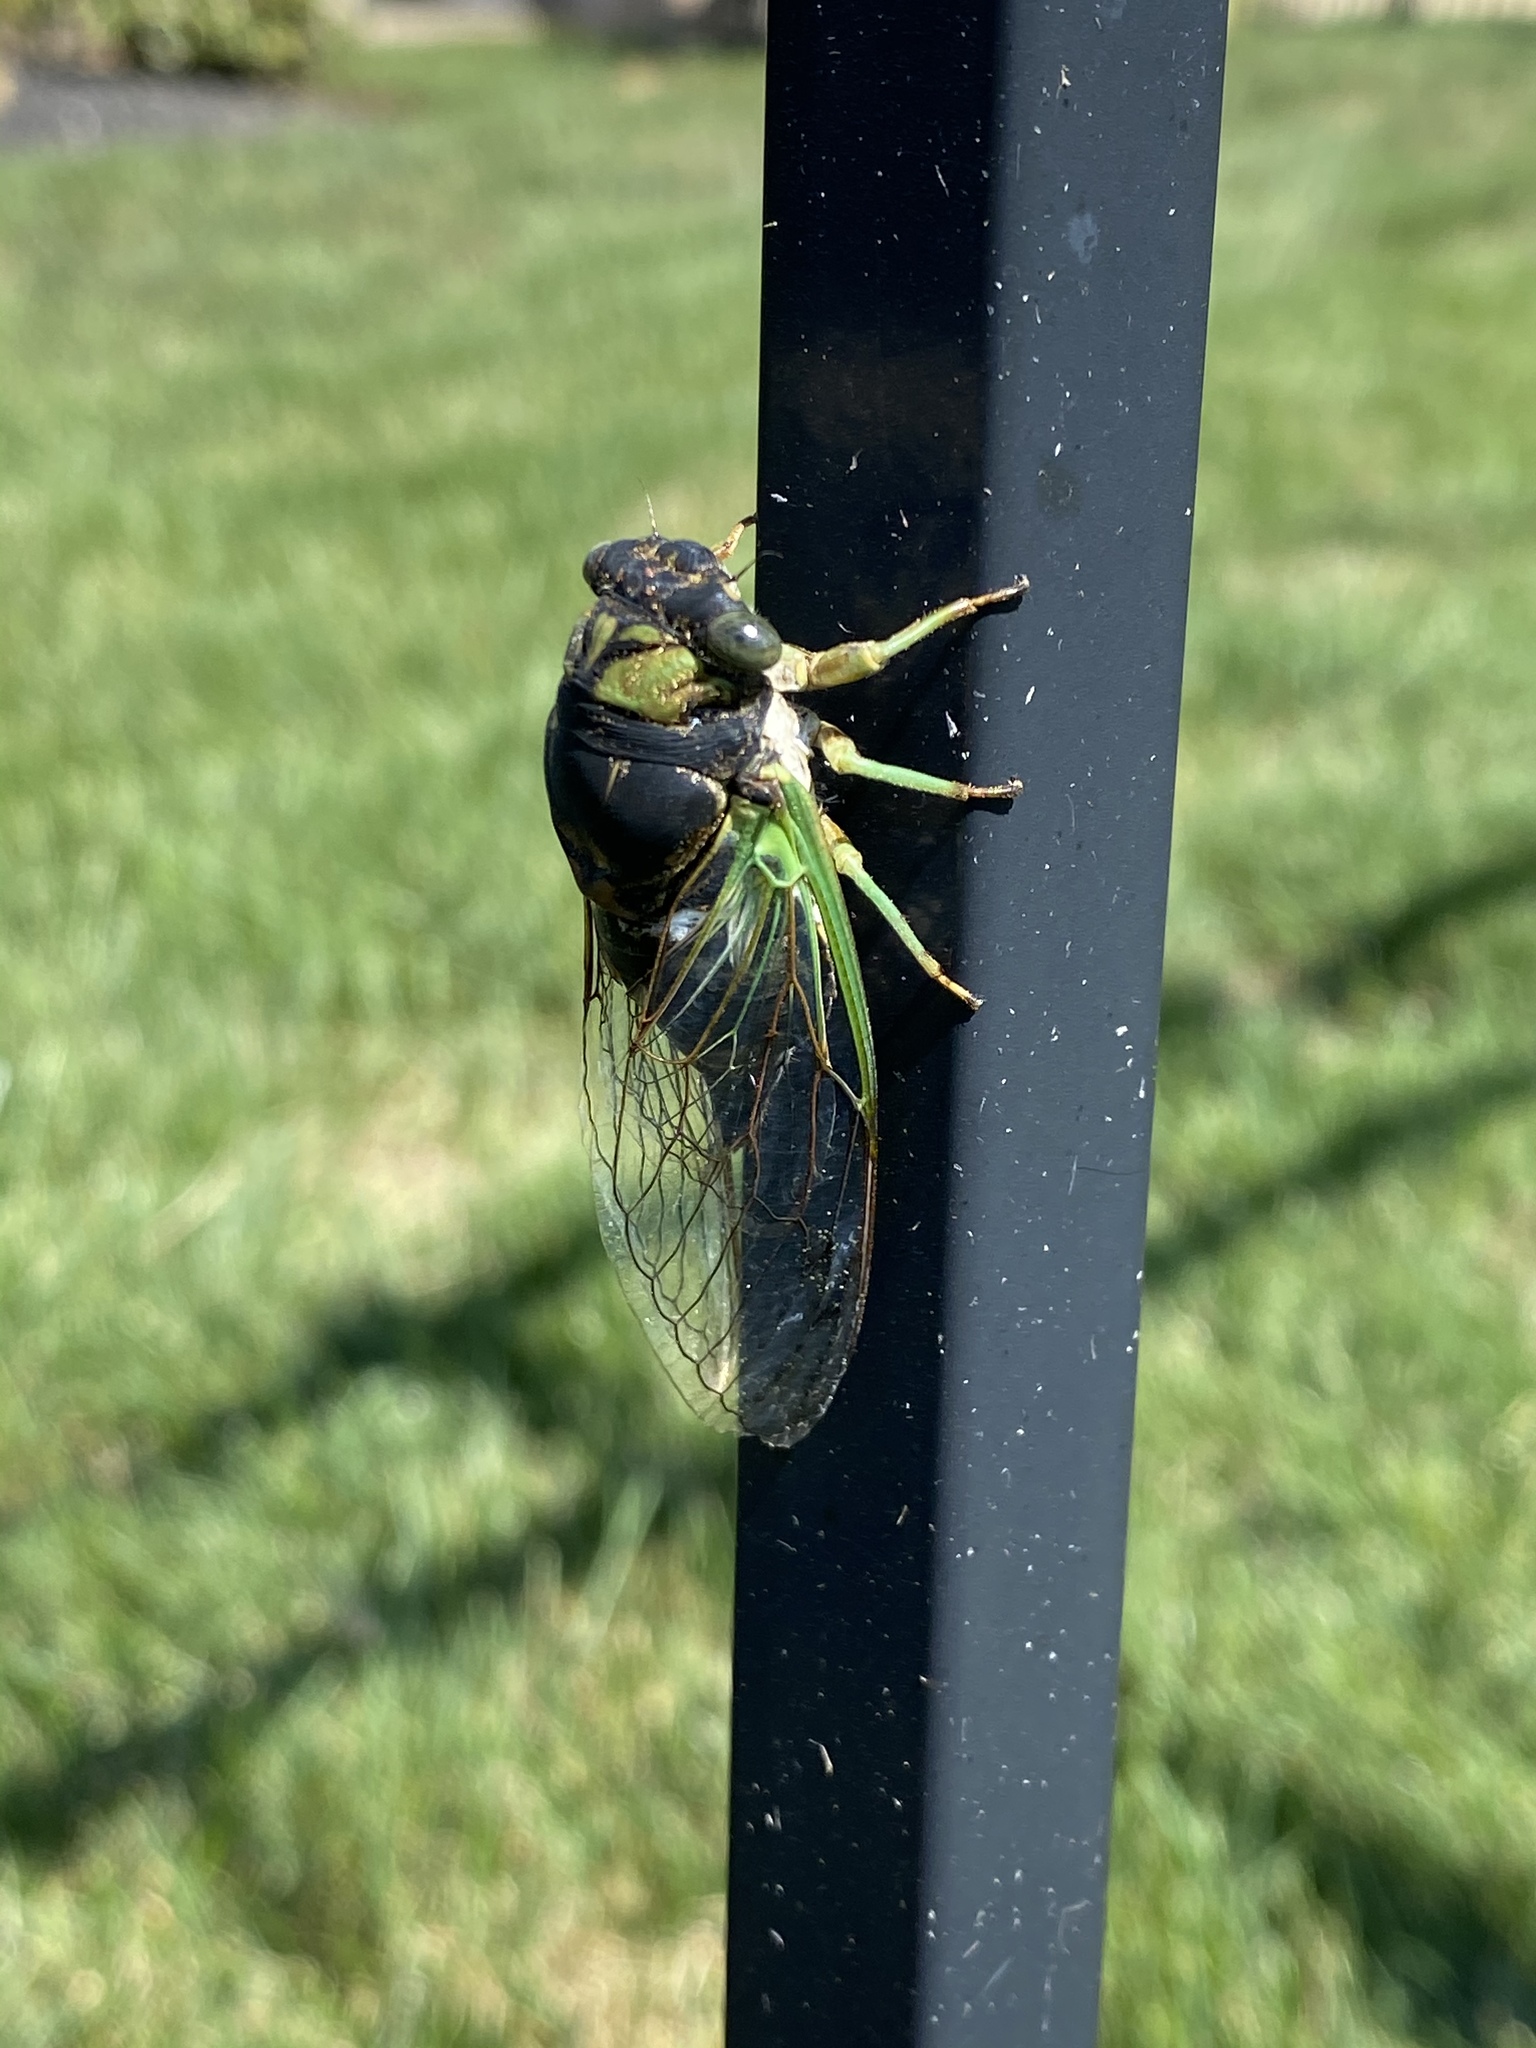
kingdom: Animalia
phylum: Arthropoda
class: Insecta
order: Hemiptera
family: Cicadidae
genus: Neotibicen
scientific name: Neotibicen tibicen
